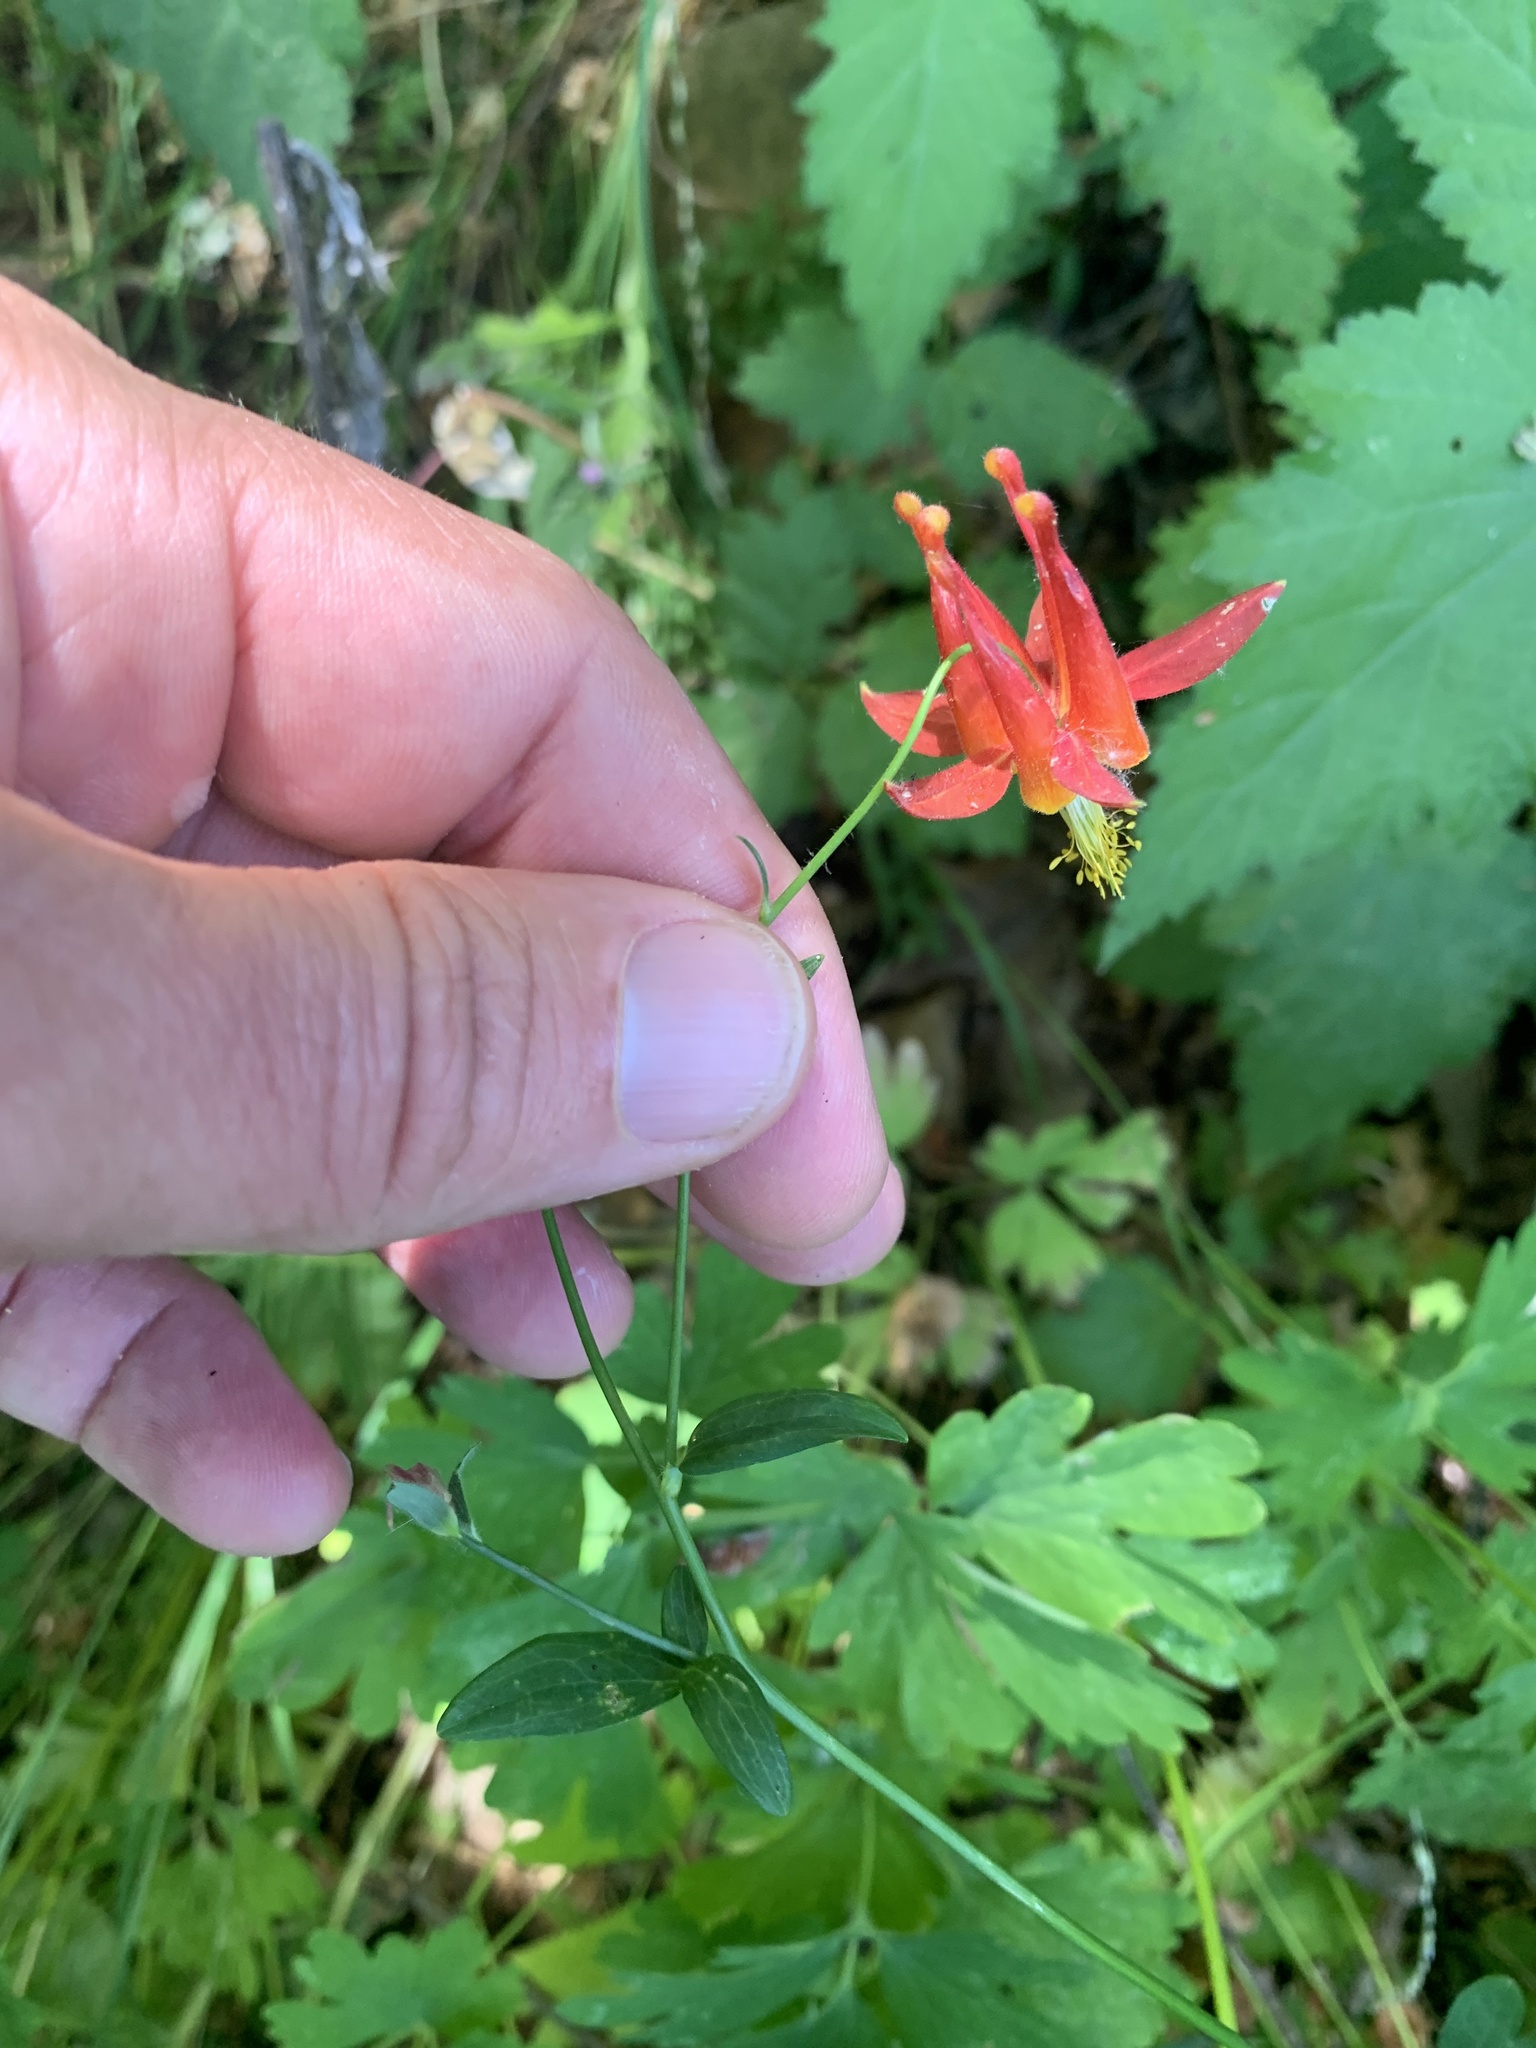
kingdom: Plantae
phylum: Tracheophyta
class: Magnoliopsida
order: Ranunculales
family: Ranunculaceae
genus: Aquilegia
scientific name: Aquilegia formosa
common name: Sitka columbine
